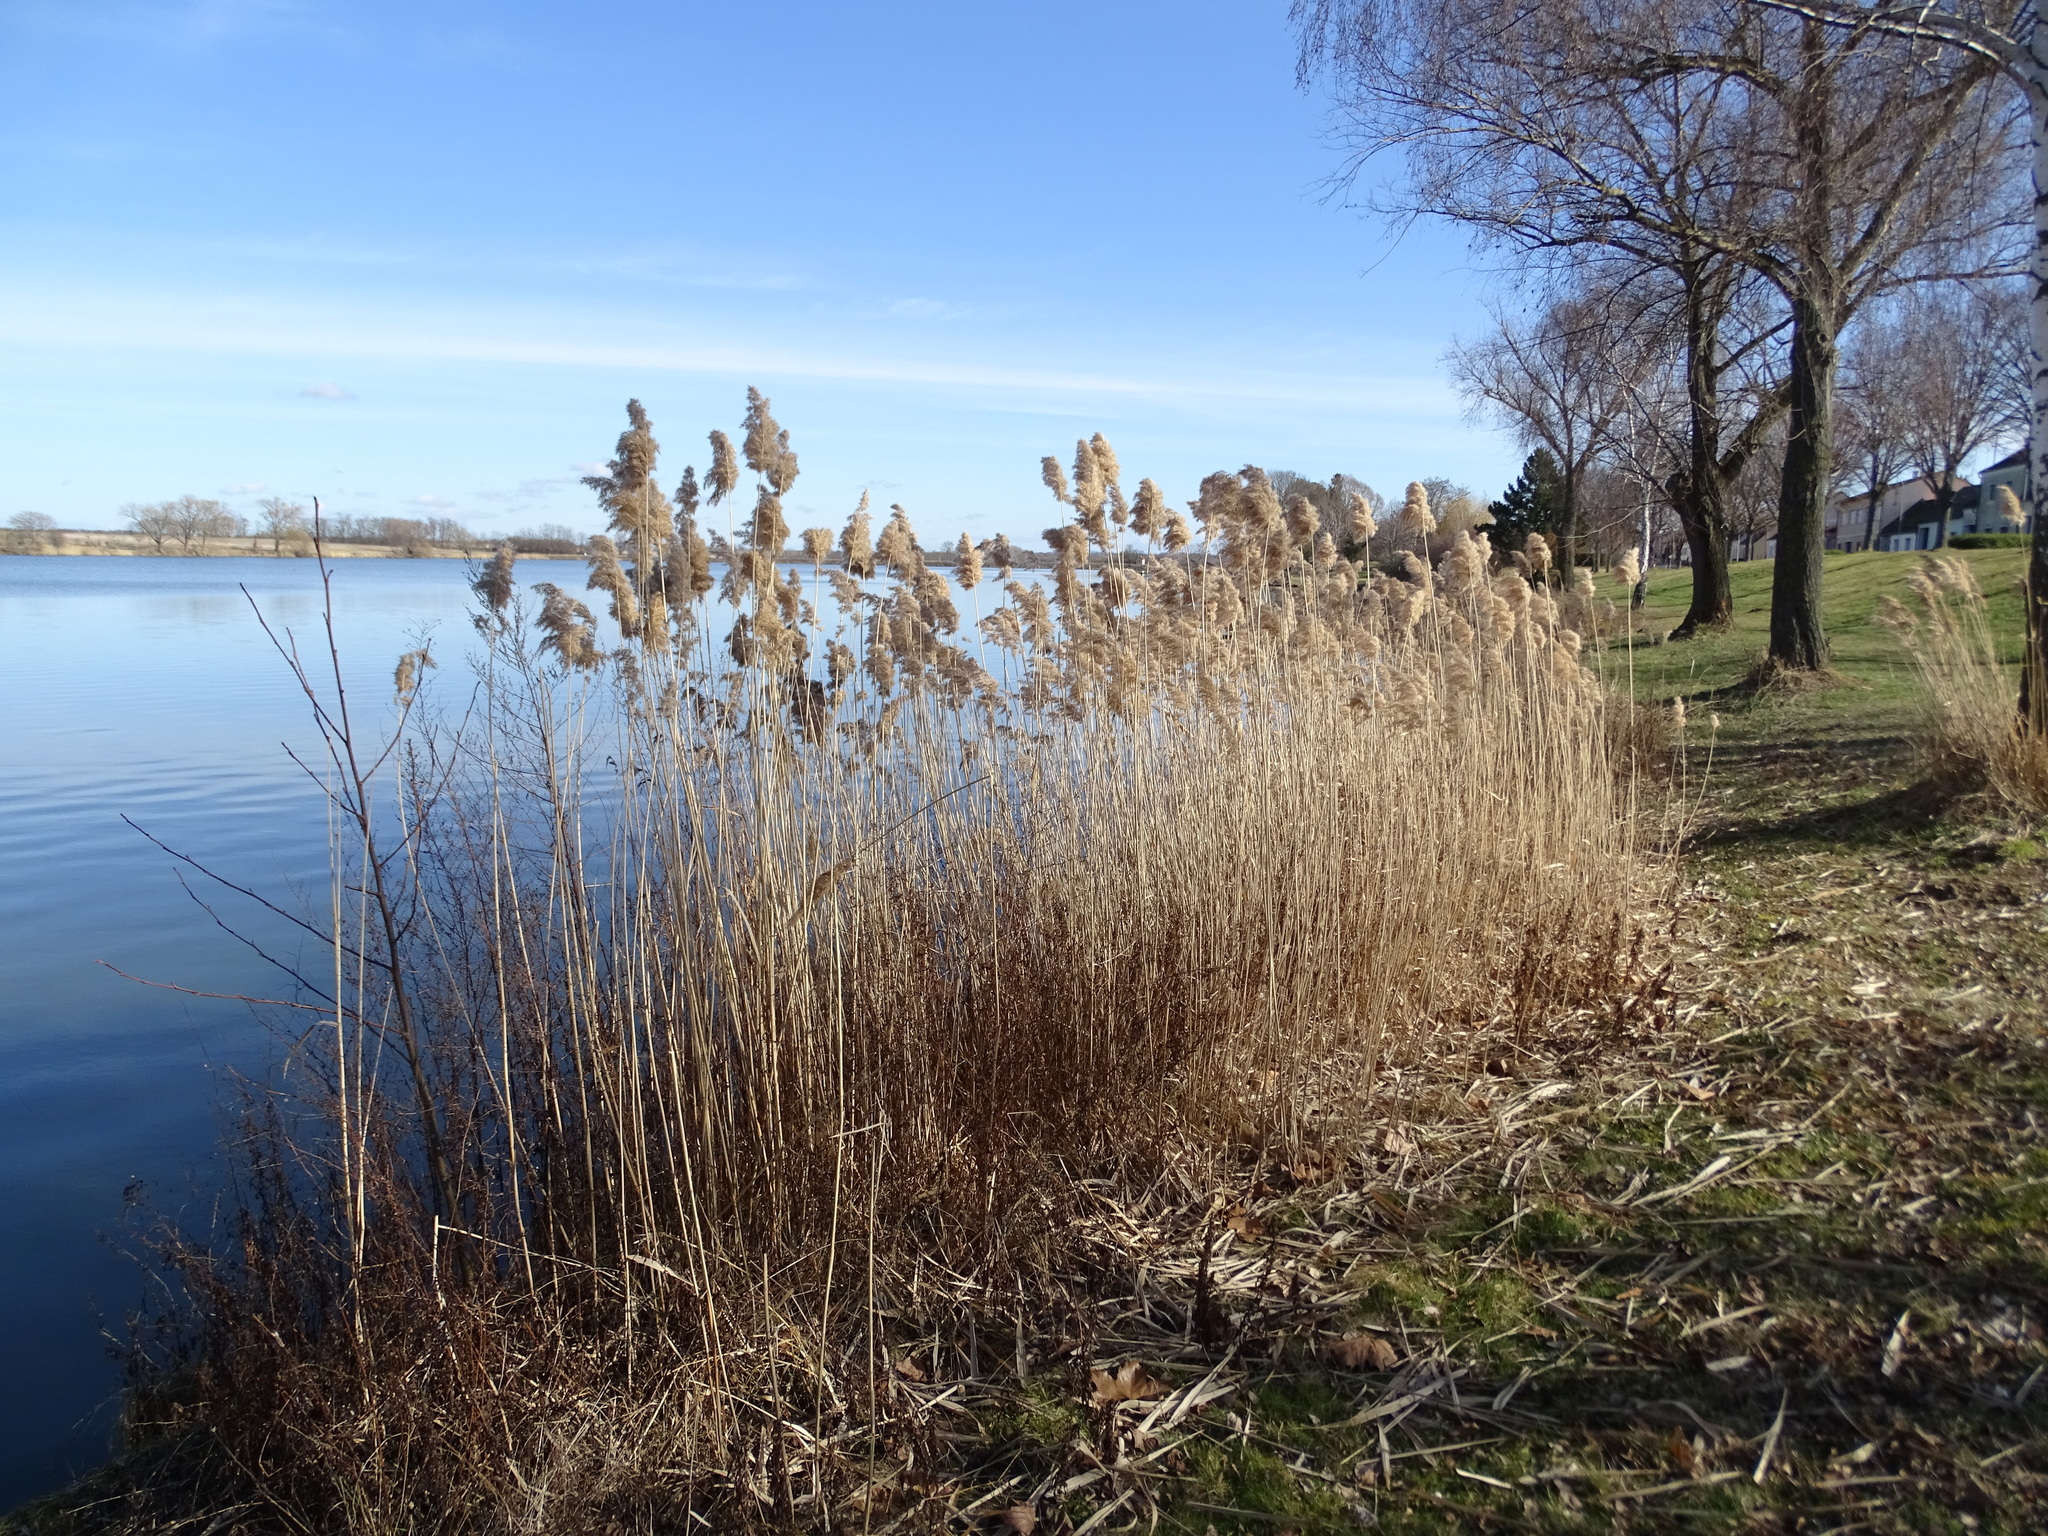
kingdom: Plantae
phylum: Tracheophyta
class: Liliopsida
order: Poales
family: Poaceae
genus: Phragmites
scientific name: Phragmites australis
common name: Common reed
